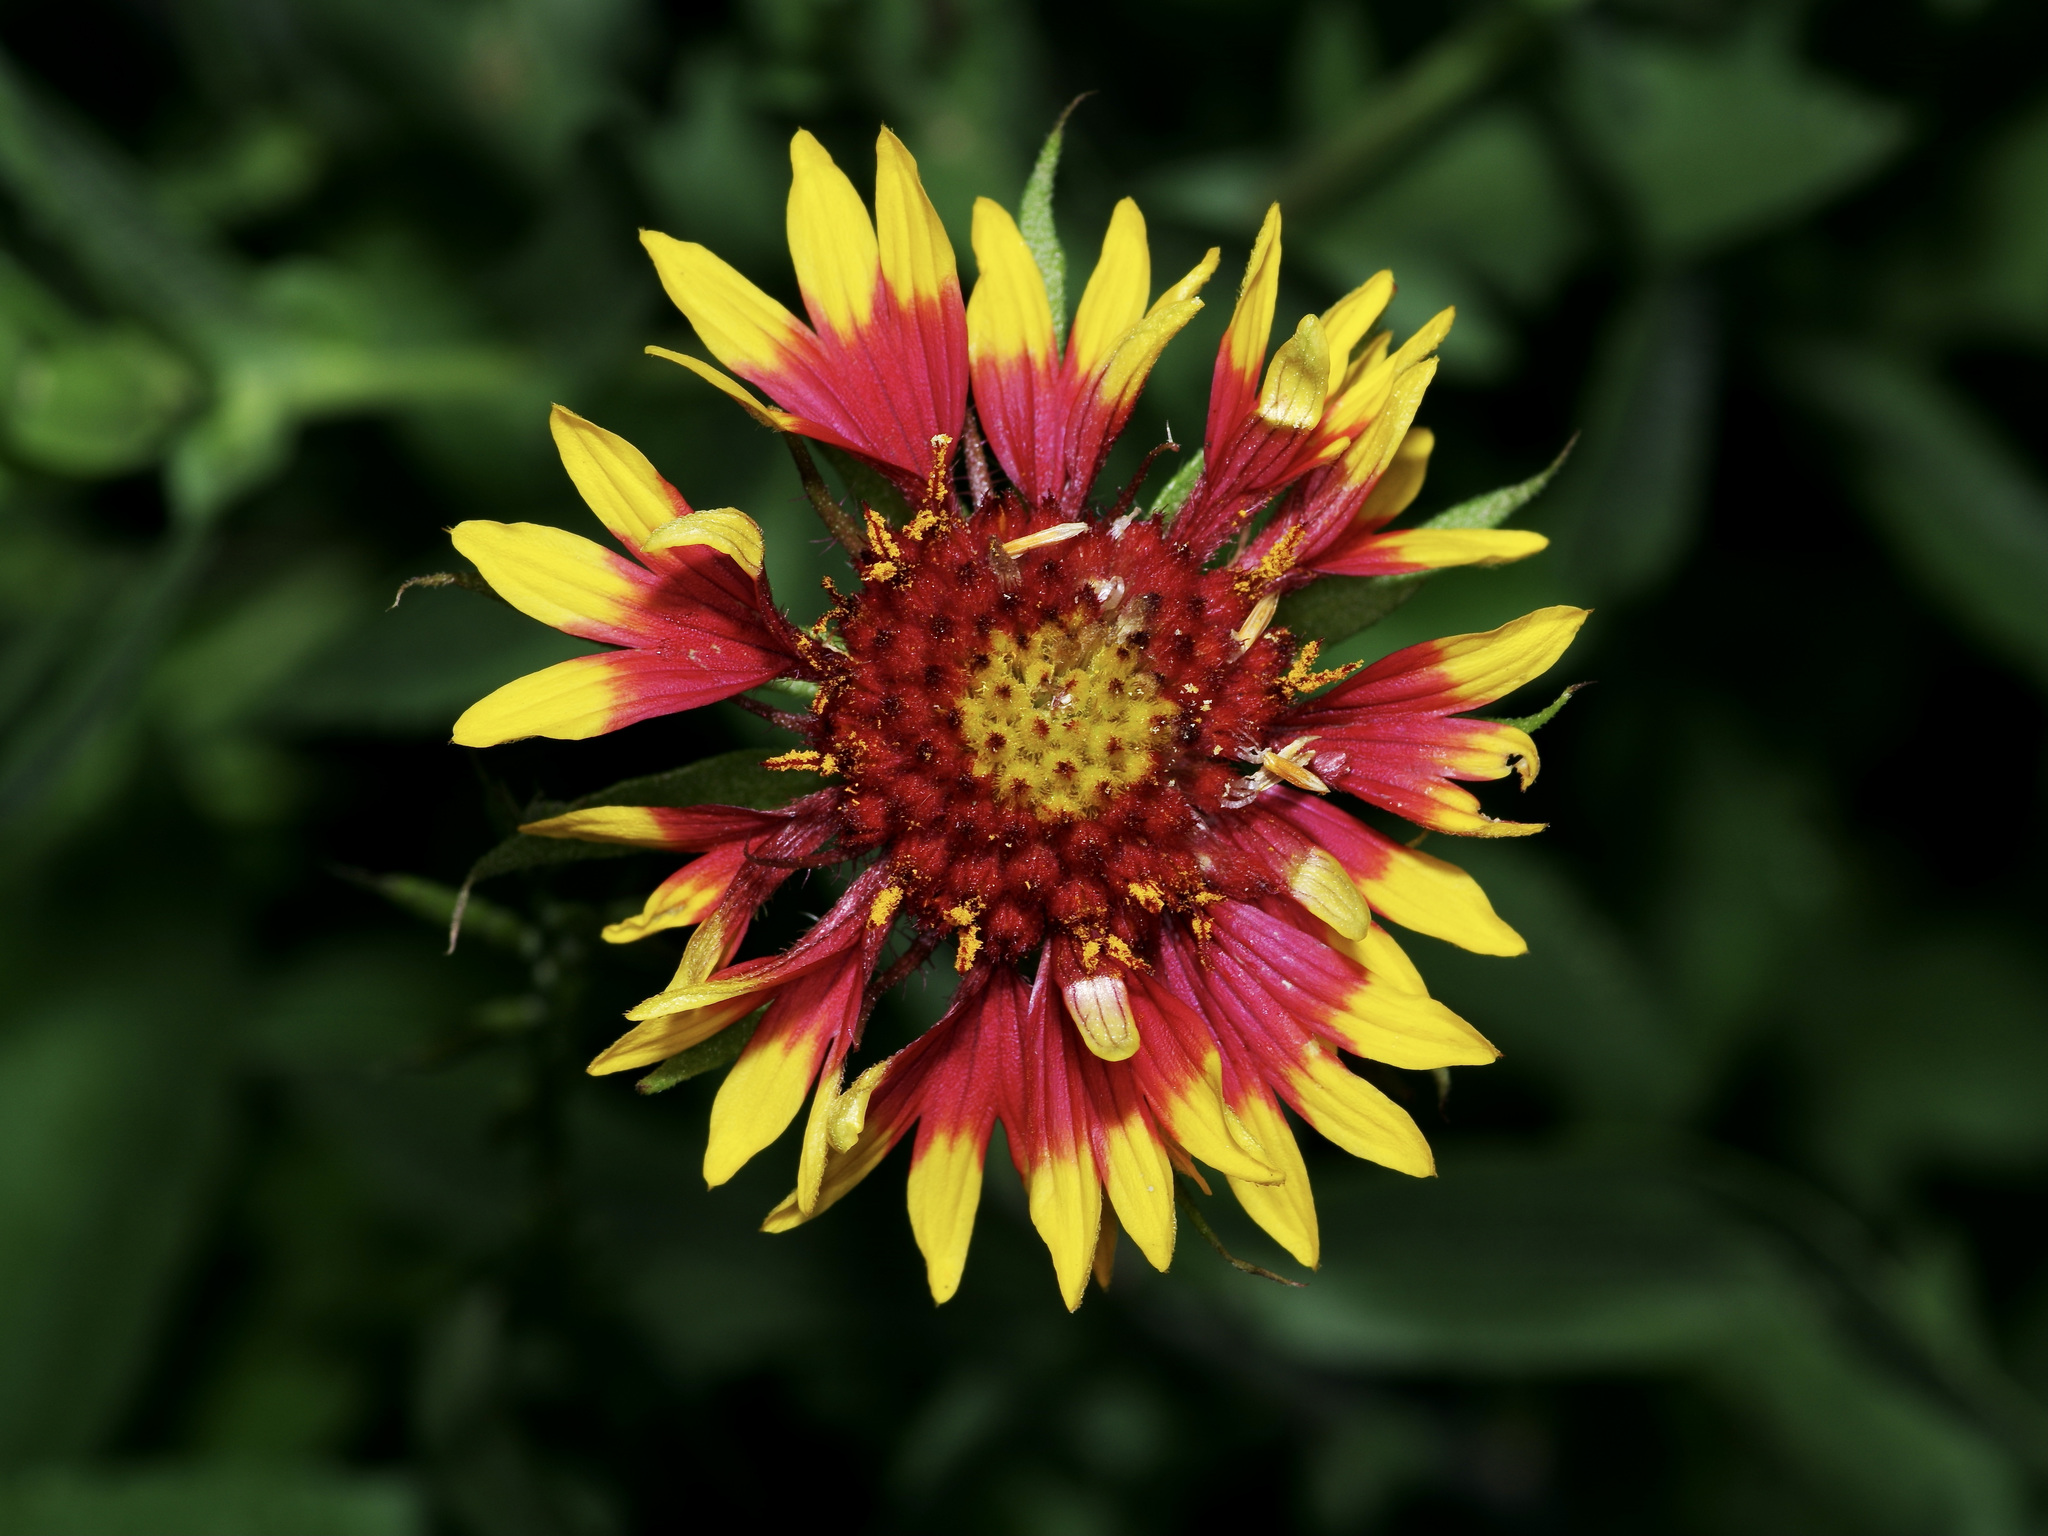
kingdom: Plantae
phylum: Tracheophyta
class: Magnoliopsida
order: Asterales
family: Asteraceae
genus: Gaillardia
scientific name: Gaillardia pulchella
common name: Firewheel
